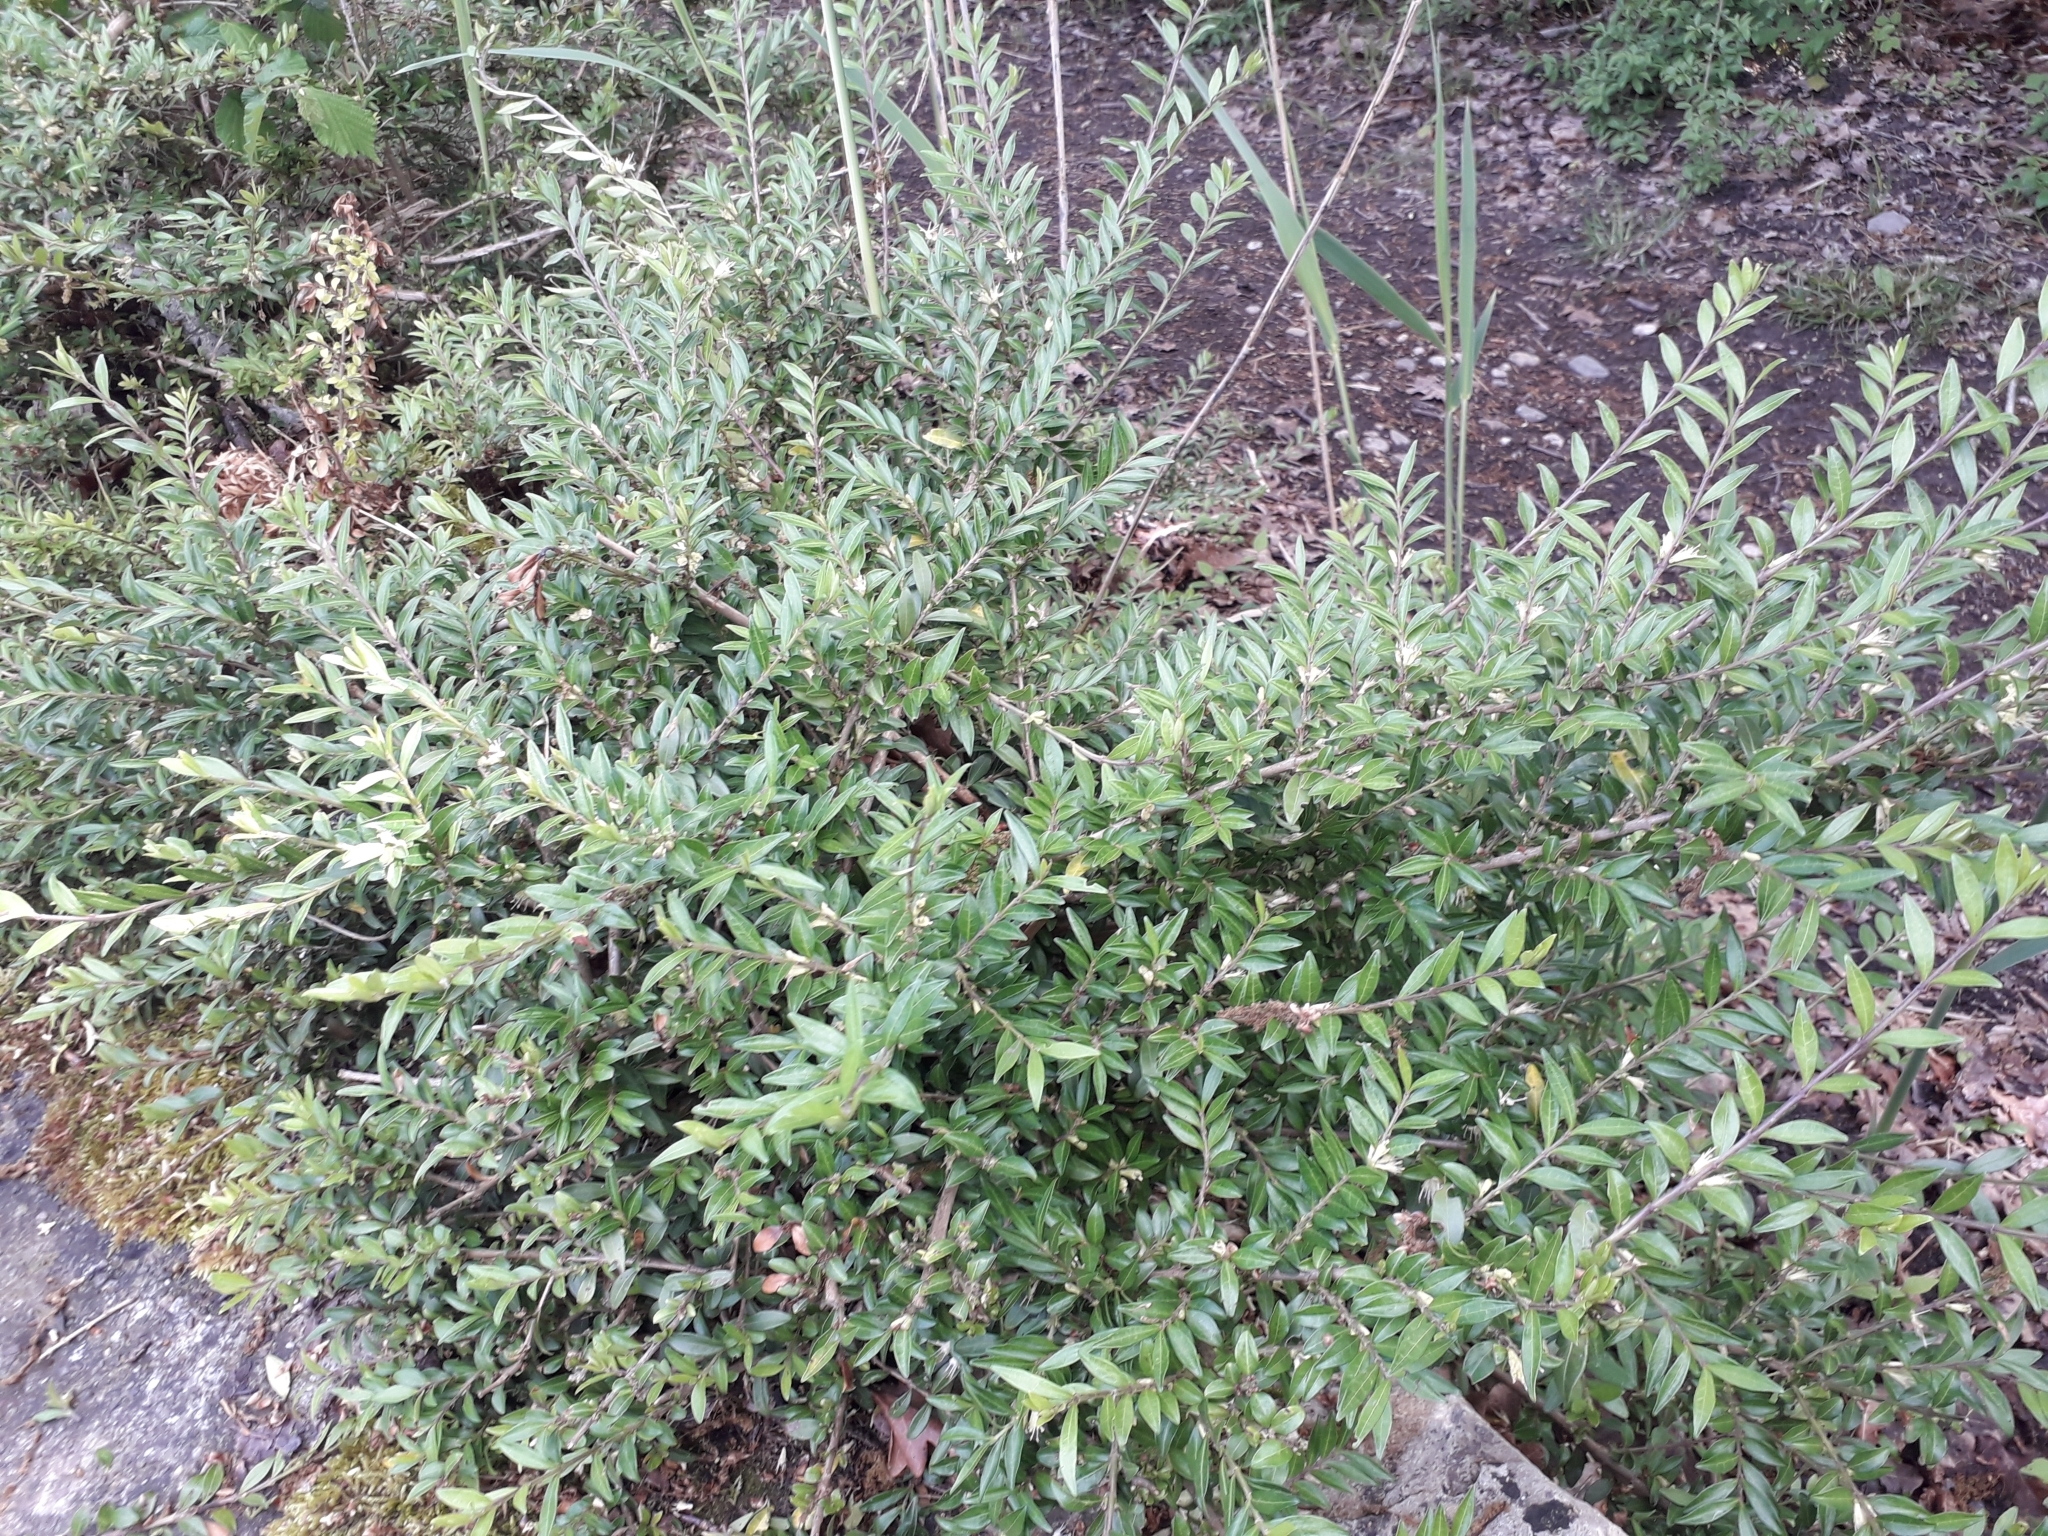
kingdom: Plantae
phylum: Tracheophyta
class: Magnoliopsida
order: Dipsacales
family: Caprifoliaceae
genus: Lonicera
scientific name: Lonicera ligustrina
